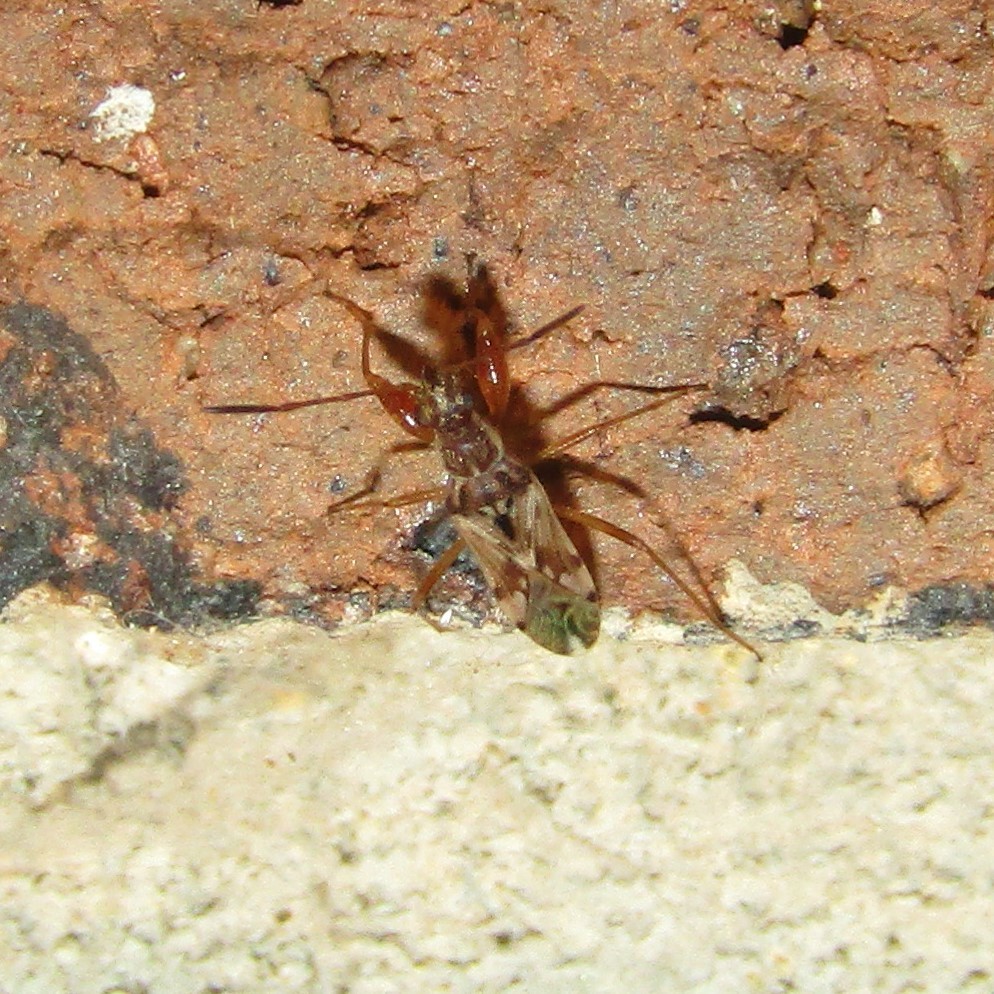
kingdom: Animalia
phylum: Arthropoda
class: Insecta
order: Hemiptera
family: Rhyparochromidae
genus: Neopamera
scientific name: Neopamera bilobata
